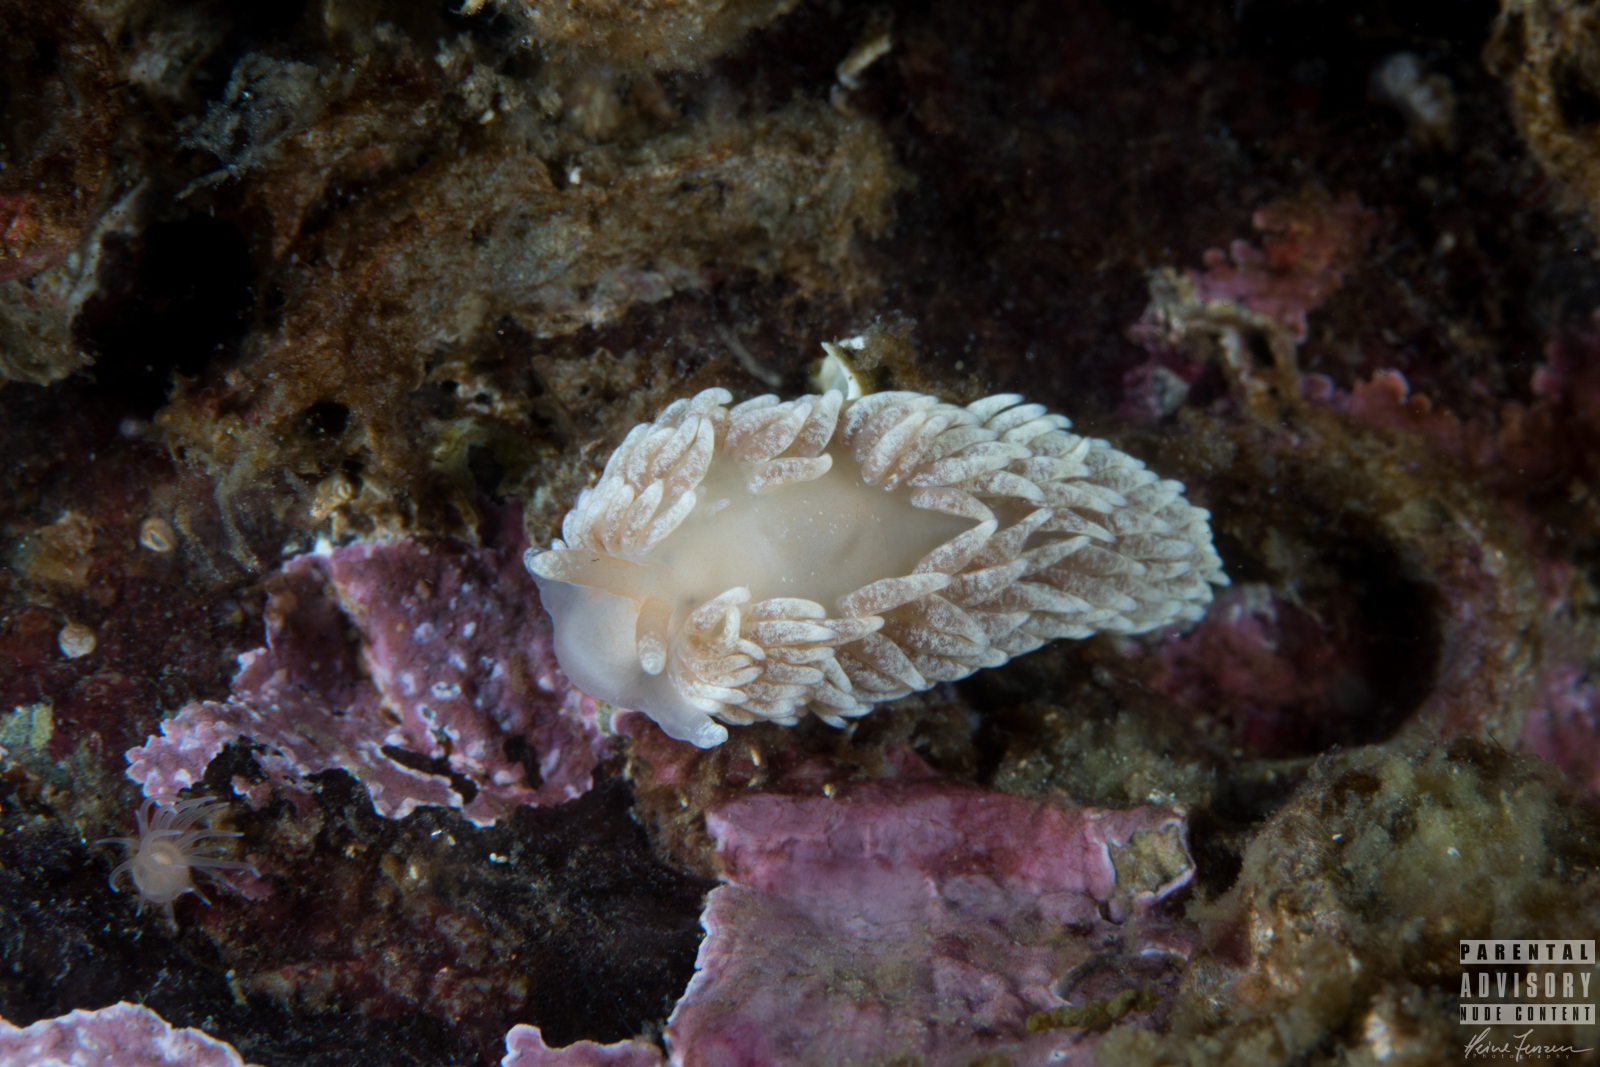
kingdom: Animalia
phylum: Mollusca
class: Gastropoda
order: Nudibranchia
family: Aeolidiidae
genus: Aeolidiella
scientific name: Aeolidiella glauca
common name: Orange-brown aeolid
